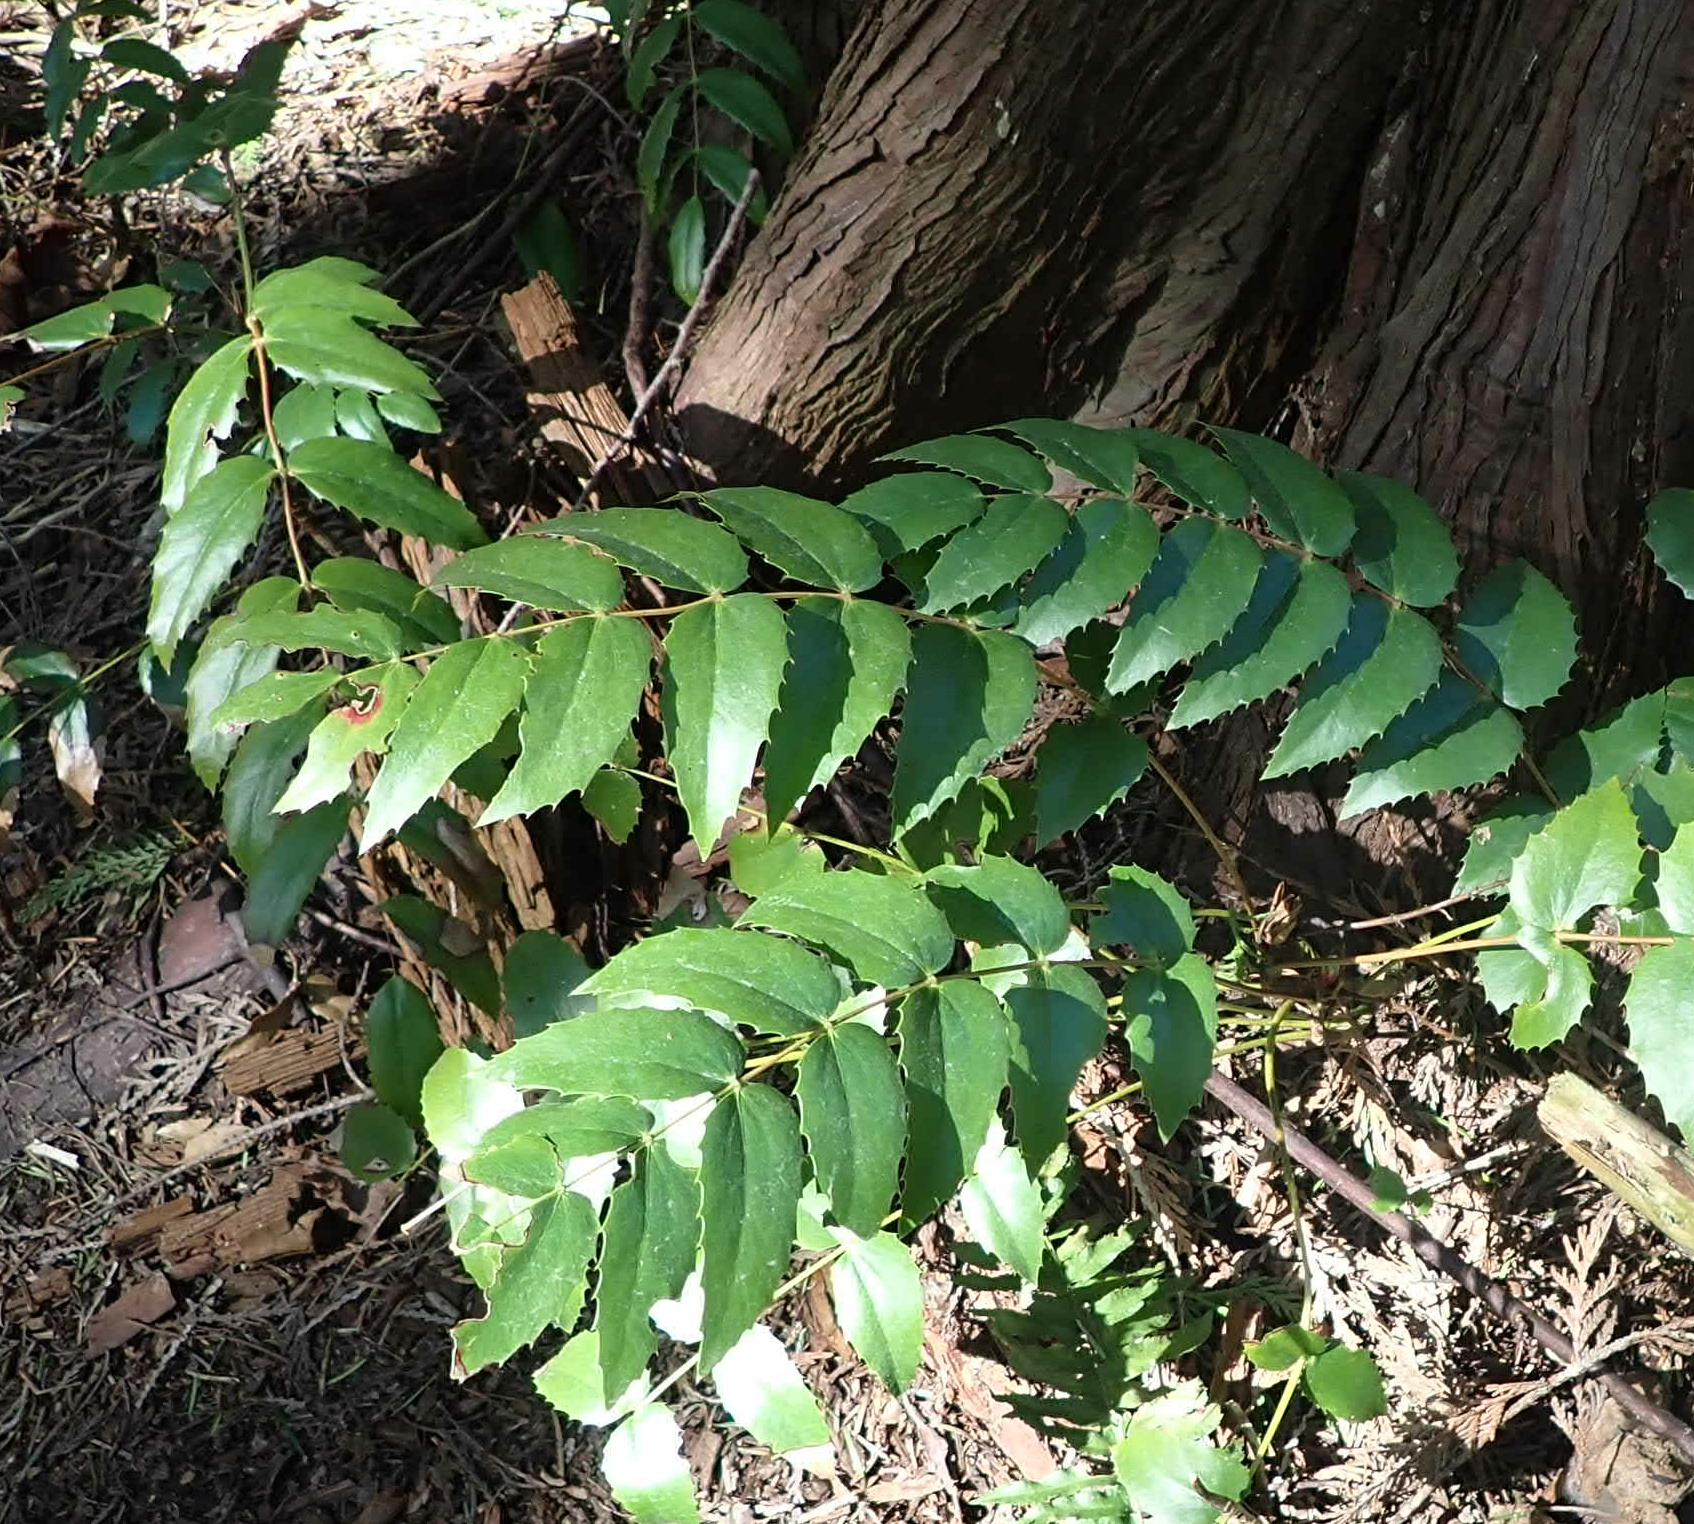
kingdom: Plantae
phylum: Tracheophyta
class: Magnoliopsida
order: Ranunculales
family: Berberidaceae
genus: Mahonia
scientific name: Mahonia nervosa
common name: Cascade oregon-grape
